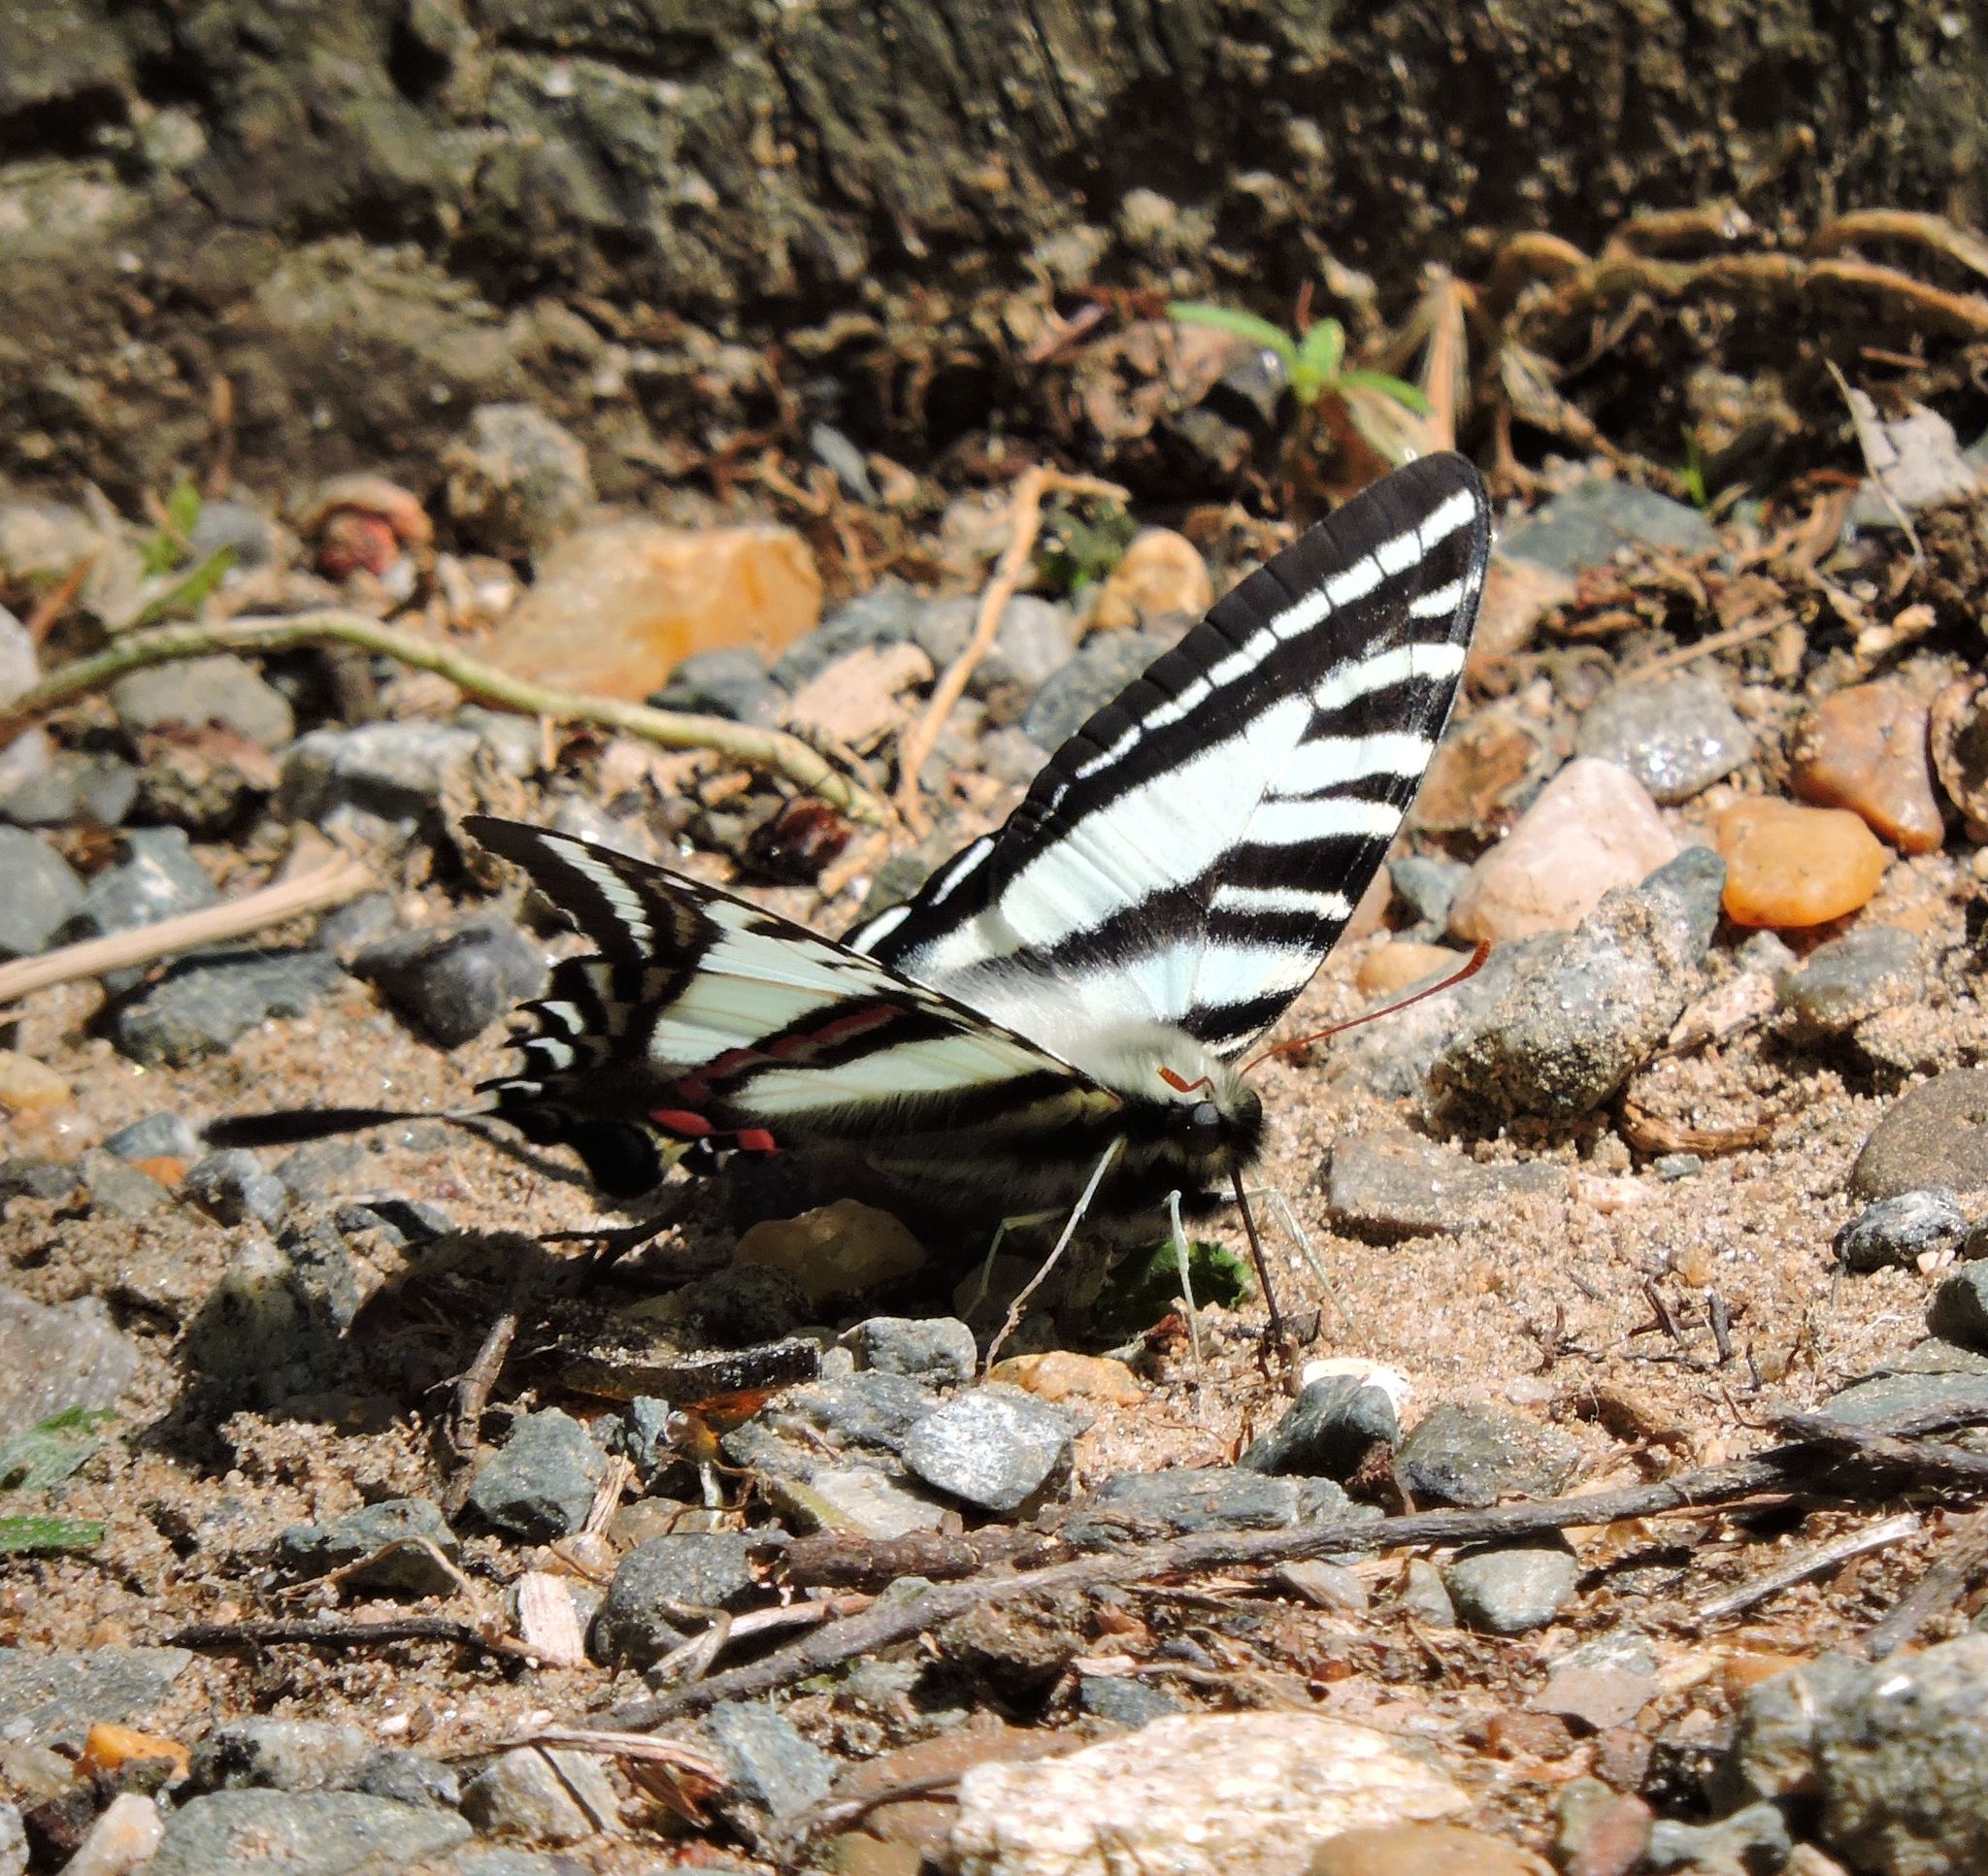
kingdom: Animalia
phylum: Arthropoda
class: Insecta
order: Lepidoptera
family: Papilionidae
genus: Protographium
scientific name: Protographium marcellus
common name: Zebra swallowtail
